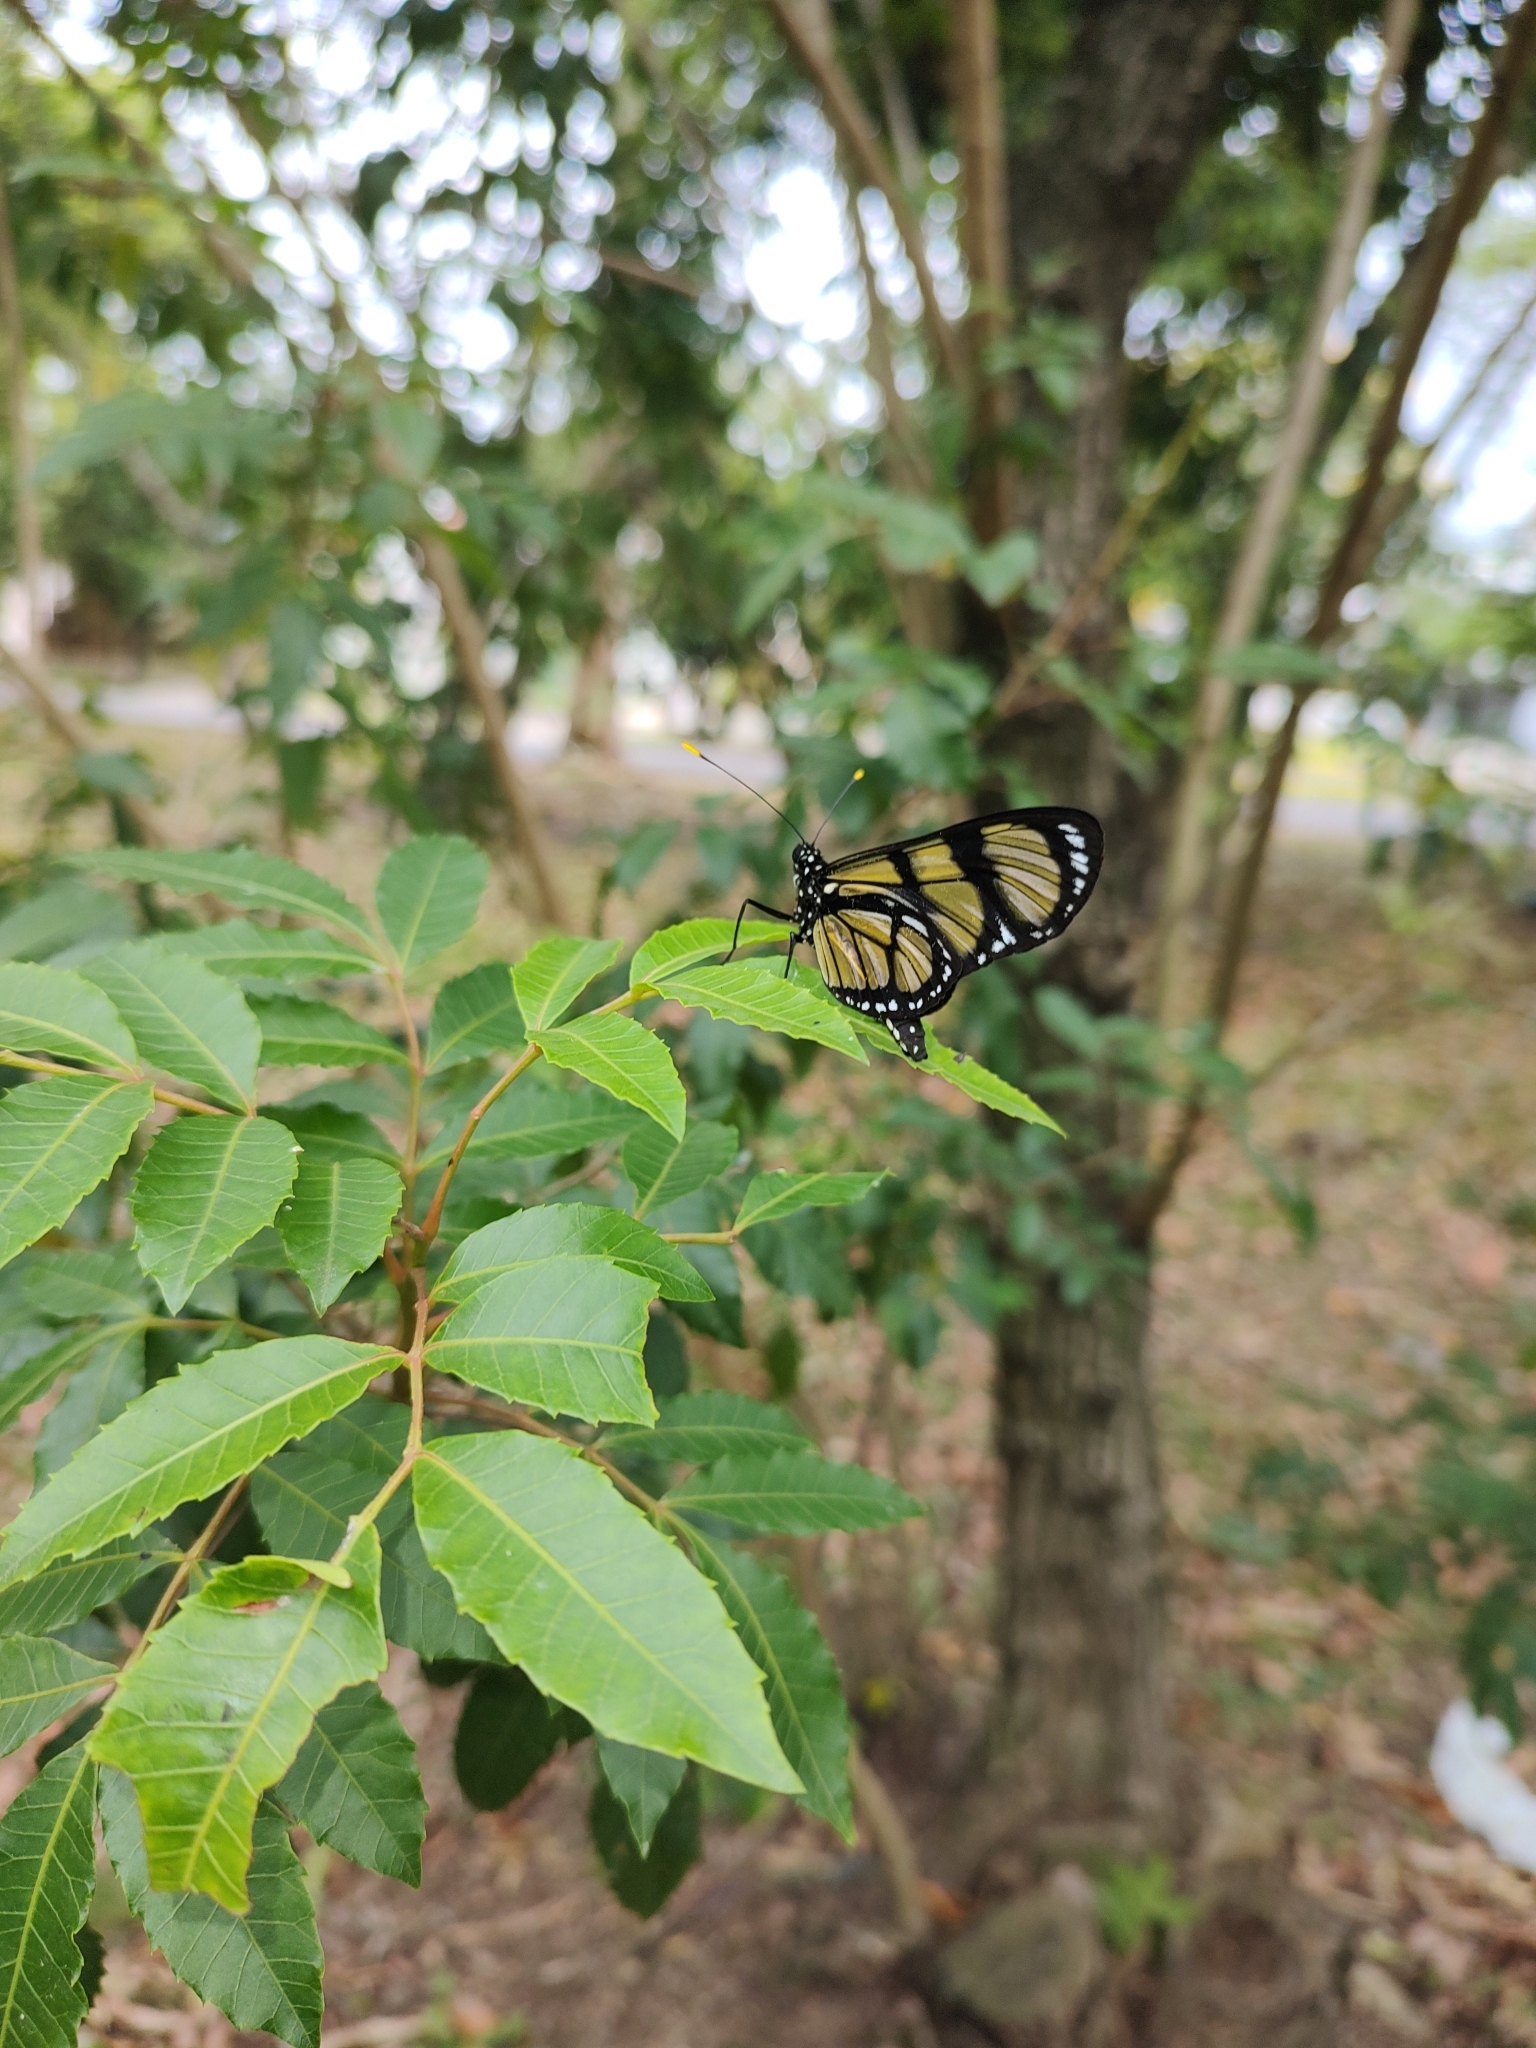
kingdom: Animalia
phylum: Arthropoda
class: Insecta
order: Lepidoptera
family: Nymphalidae
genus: Methona
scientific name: Methona themisto
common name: Themisto amberwing
